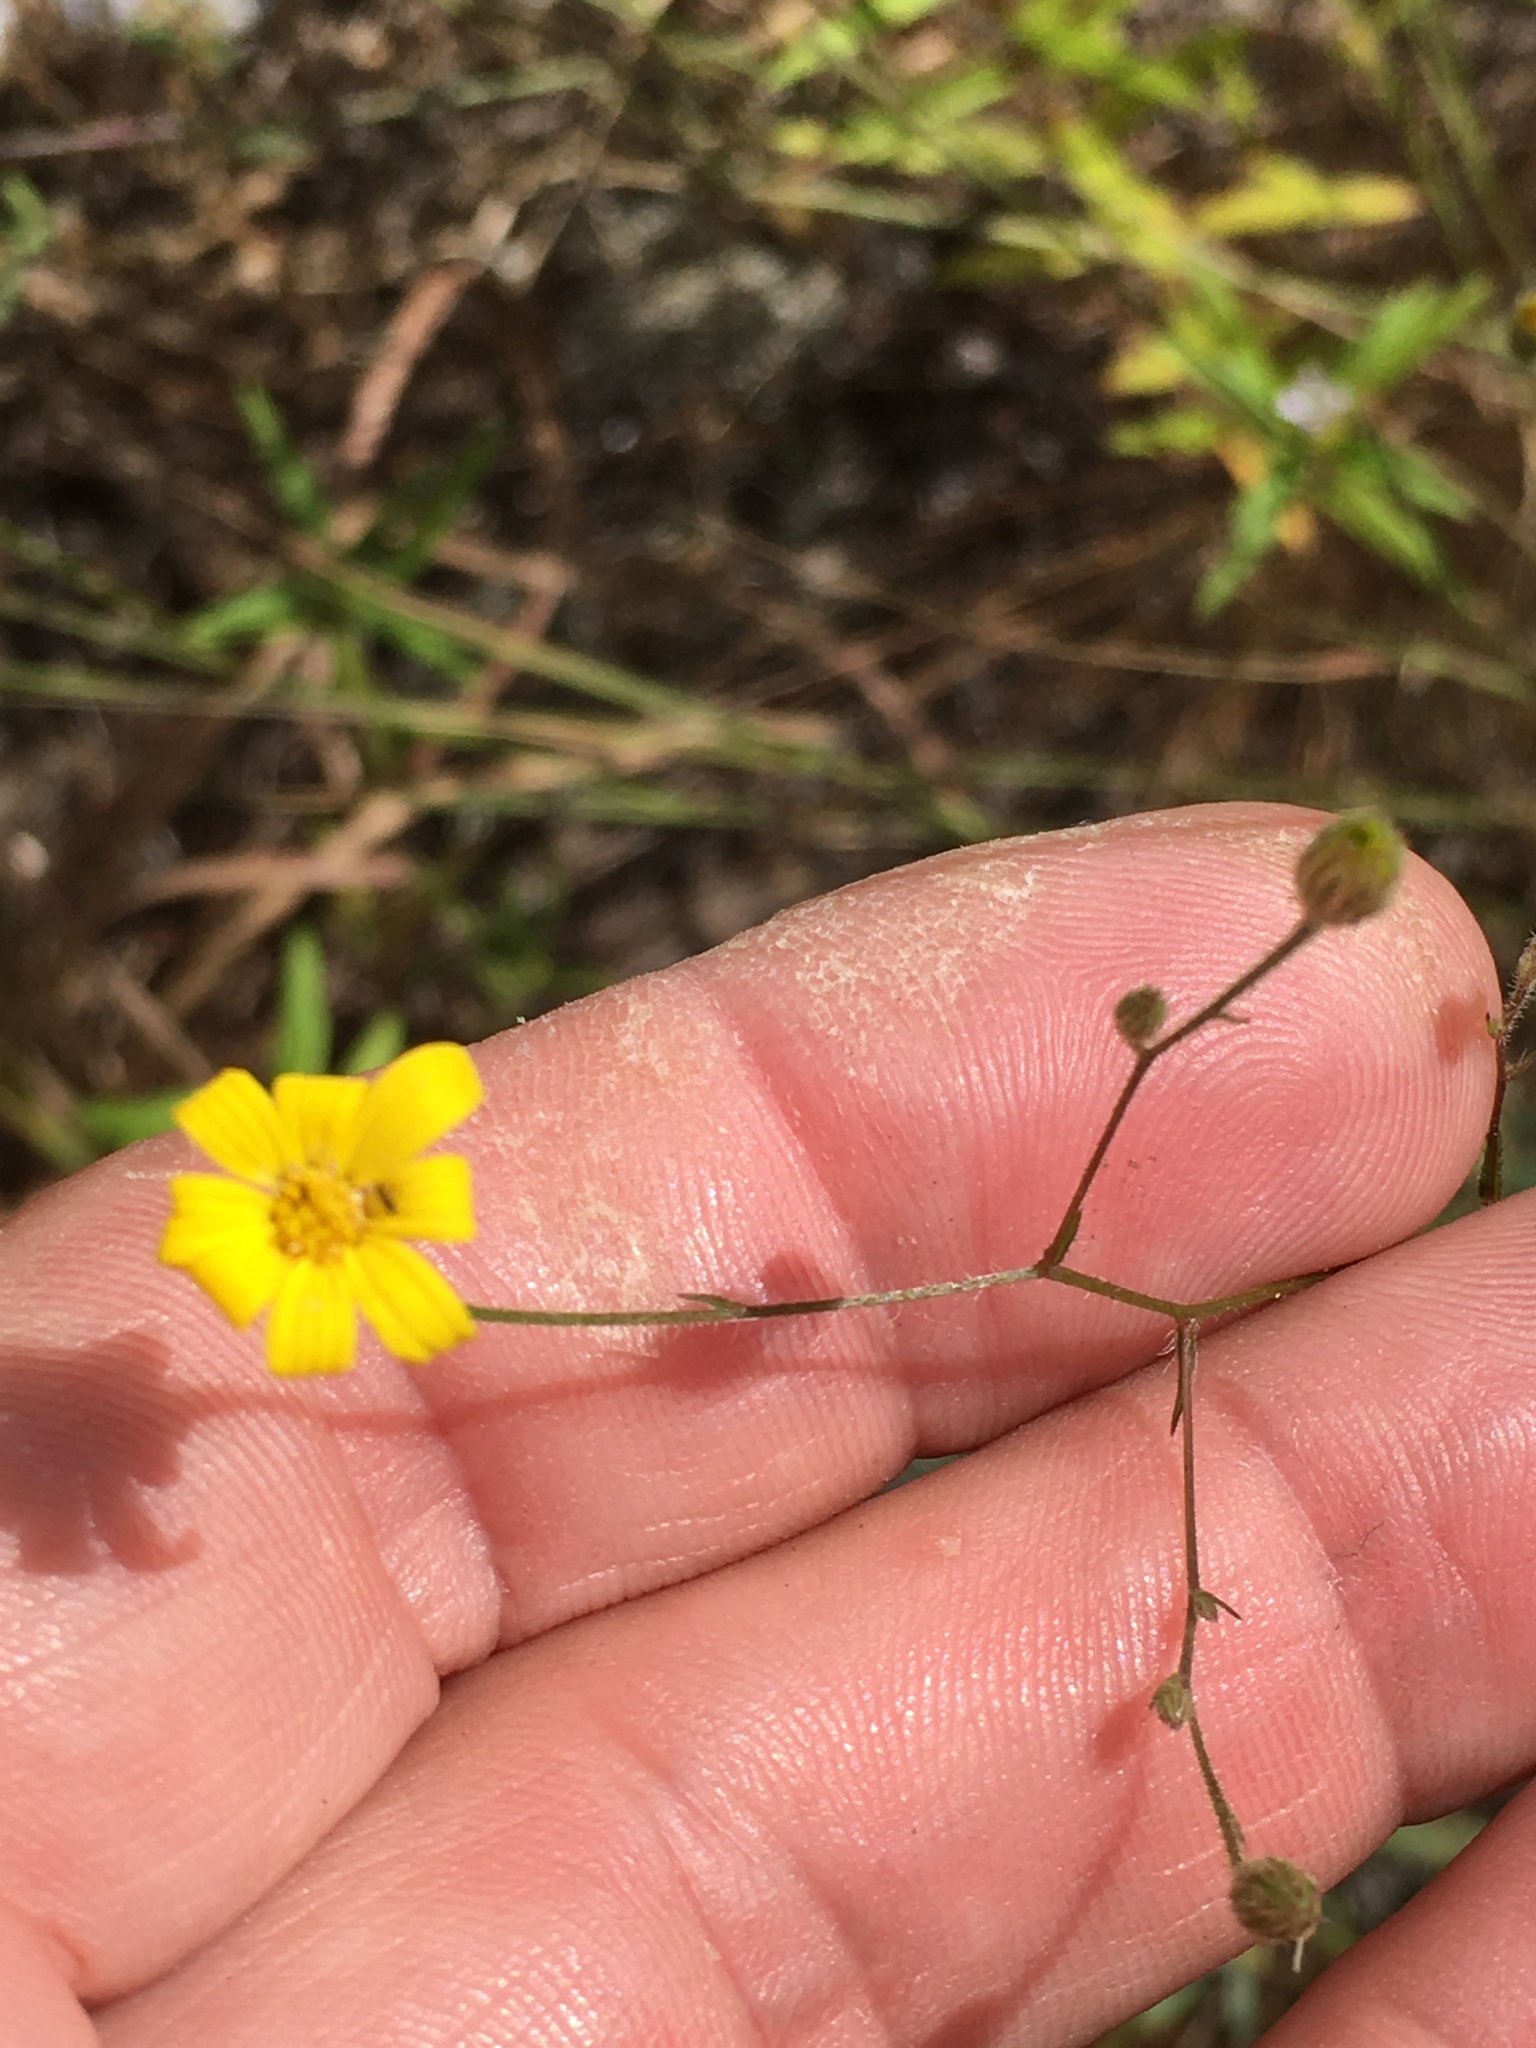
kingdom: Plantae
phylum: Tracheophyta
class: Magnoliopsida
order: Asterales
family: Asteraceae
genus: Croptilon
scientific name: Croptilon divaricatum
